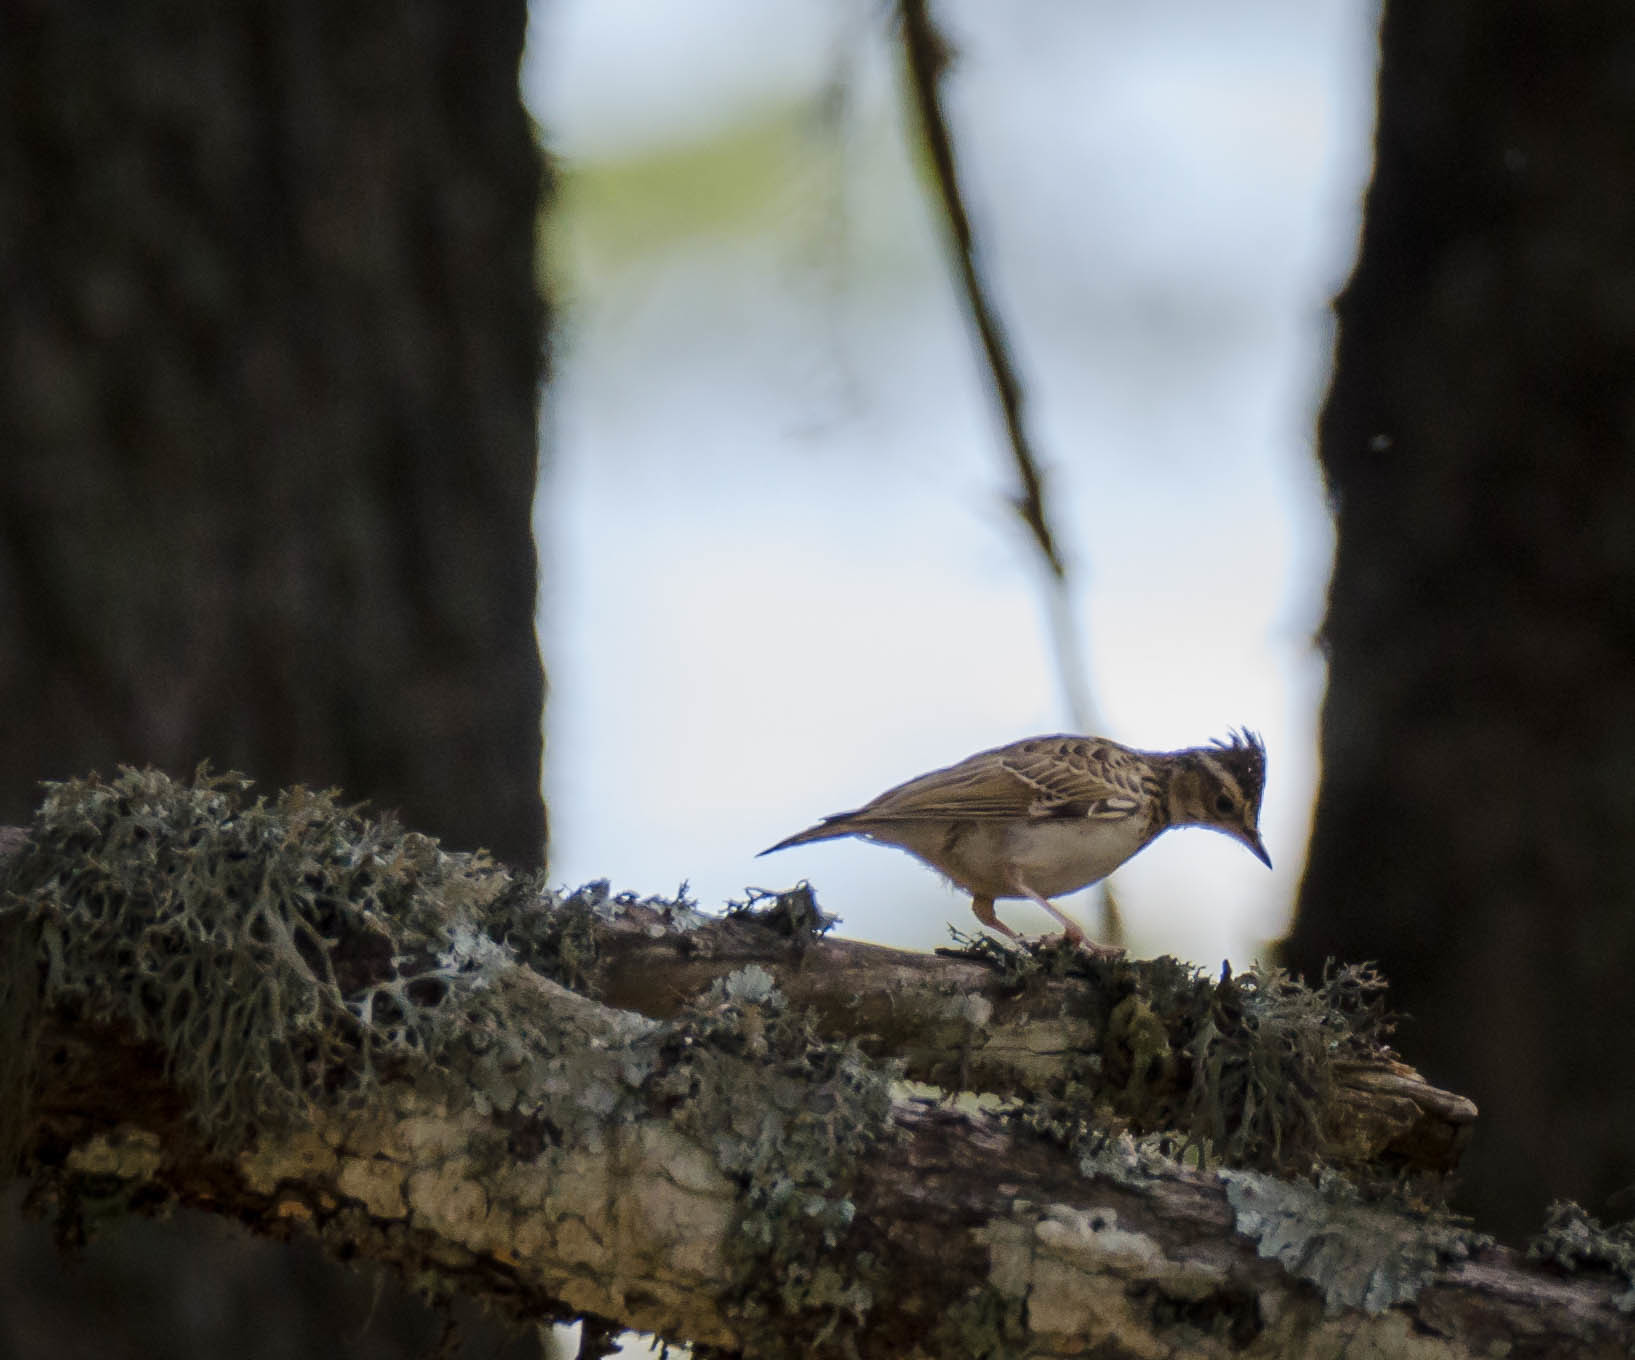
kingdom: Animalia
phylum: Chordata
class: Aves
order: Passeriformes
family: Alaudidae
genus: Lullula
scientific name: Lullula arborea
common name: Woodlark
